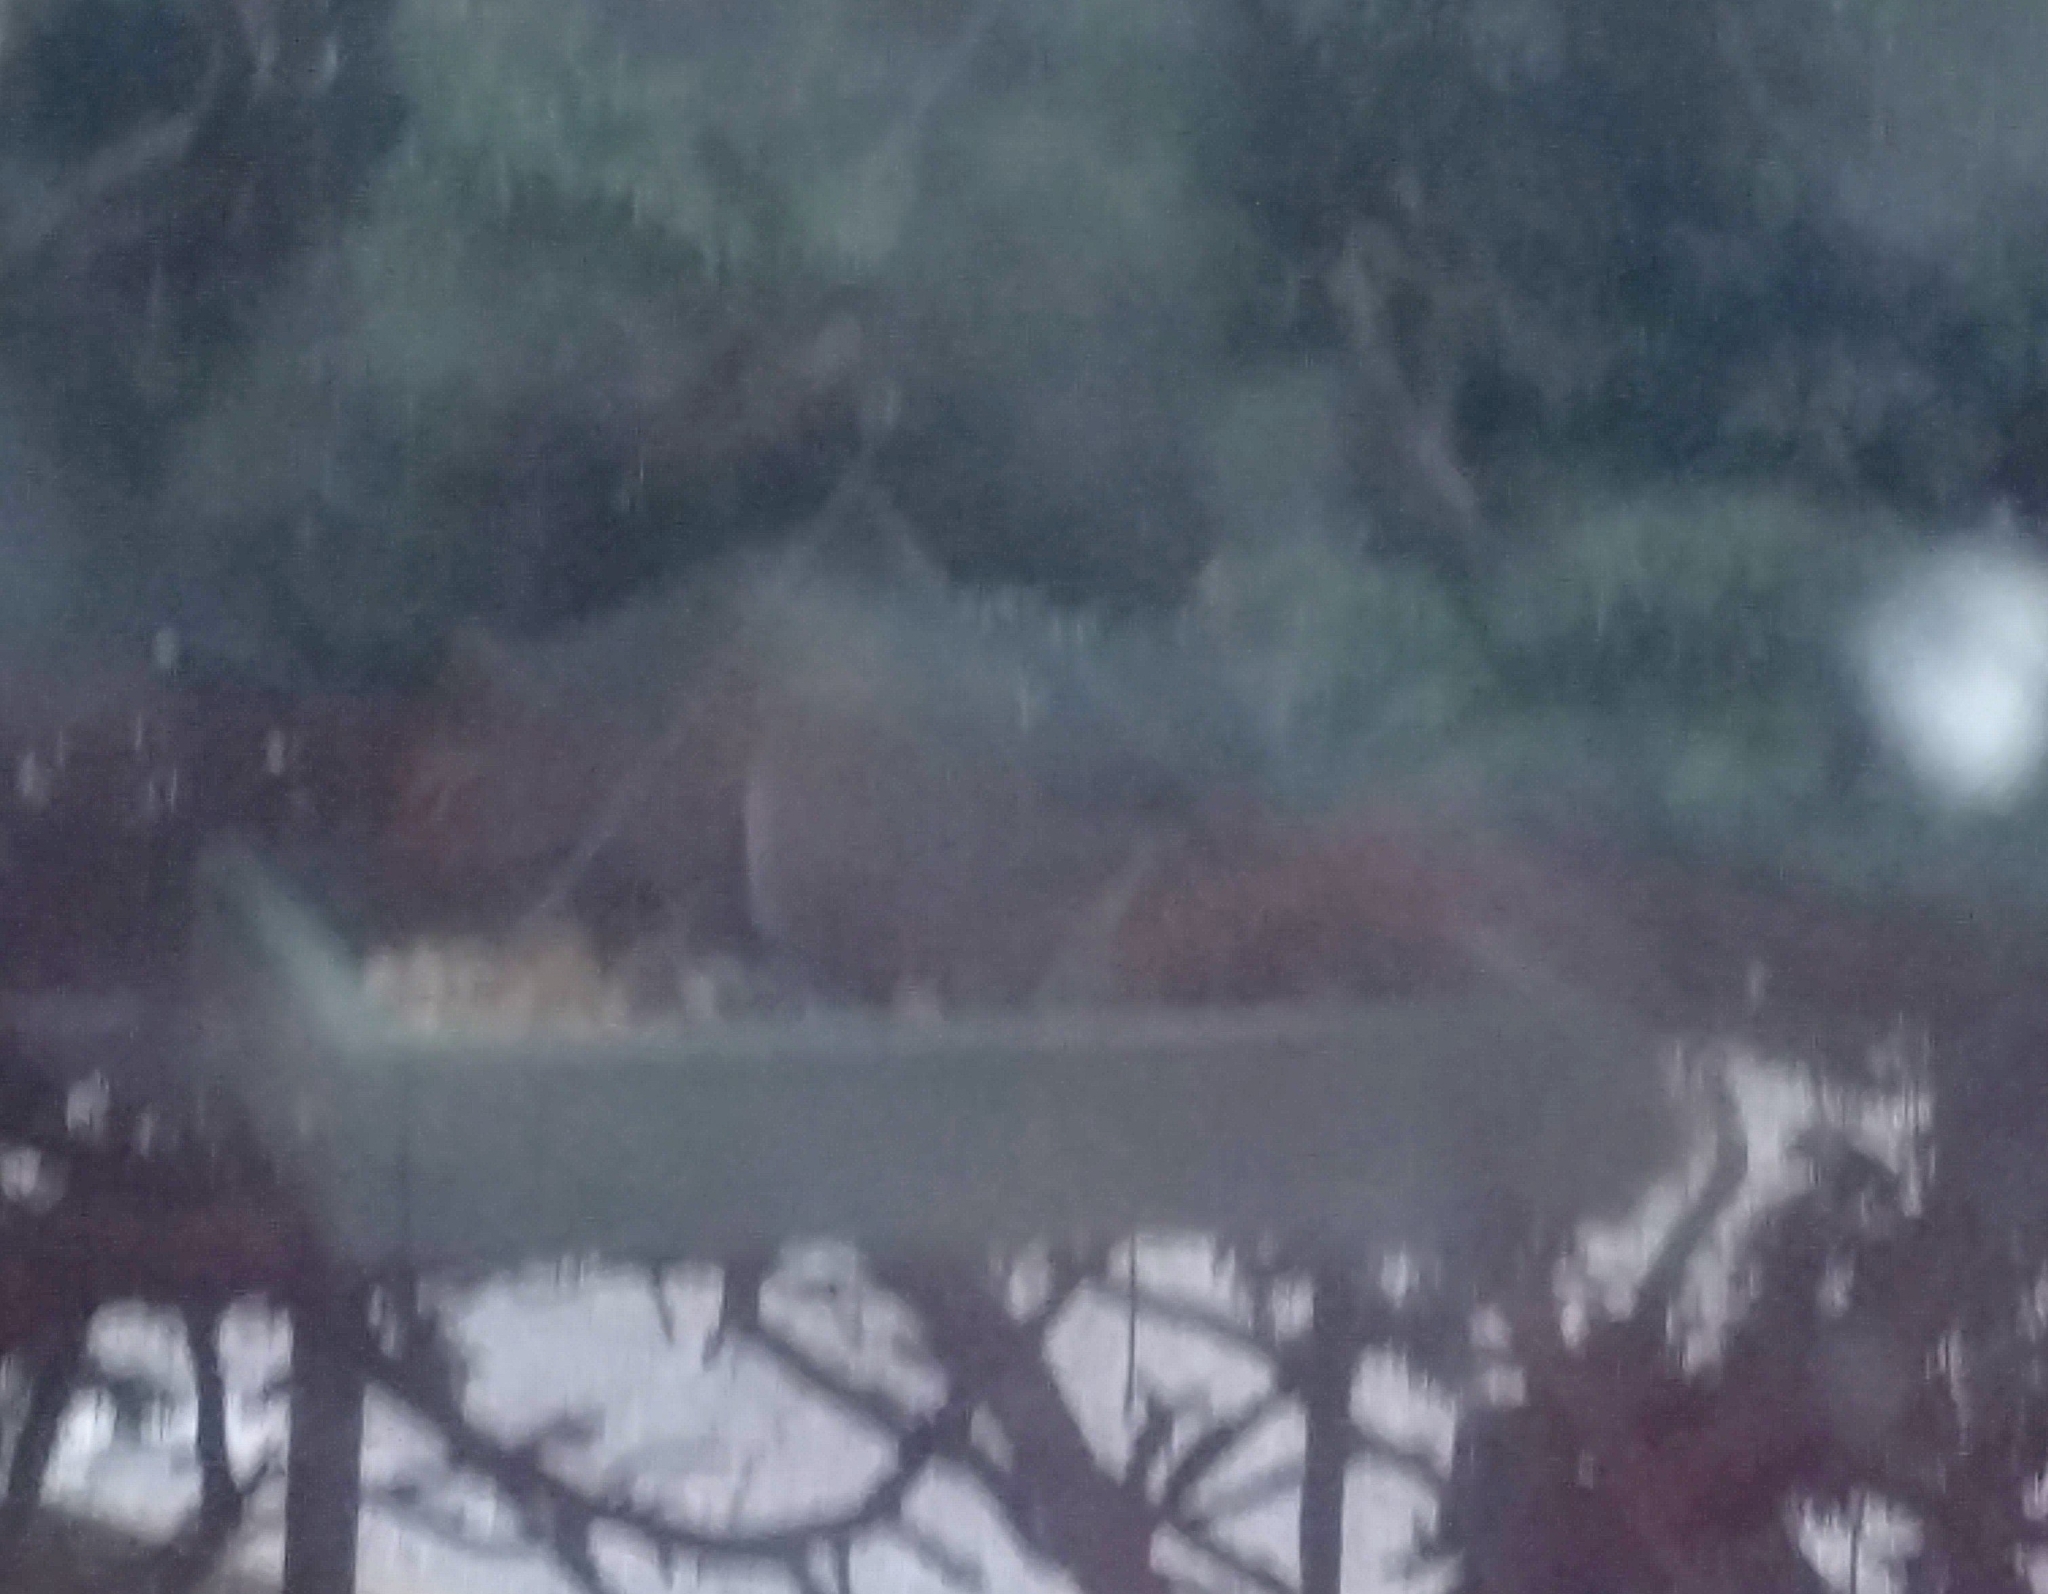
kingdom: Animalia
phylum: Chordata
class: Mammalia
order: Rodentia
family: Sciuridae
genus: Sciurus
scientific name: Sciurus carolinensis
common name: Eastern gray squirrel
